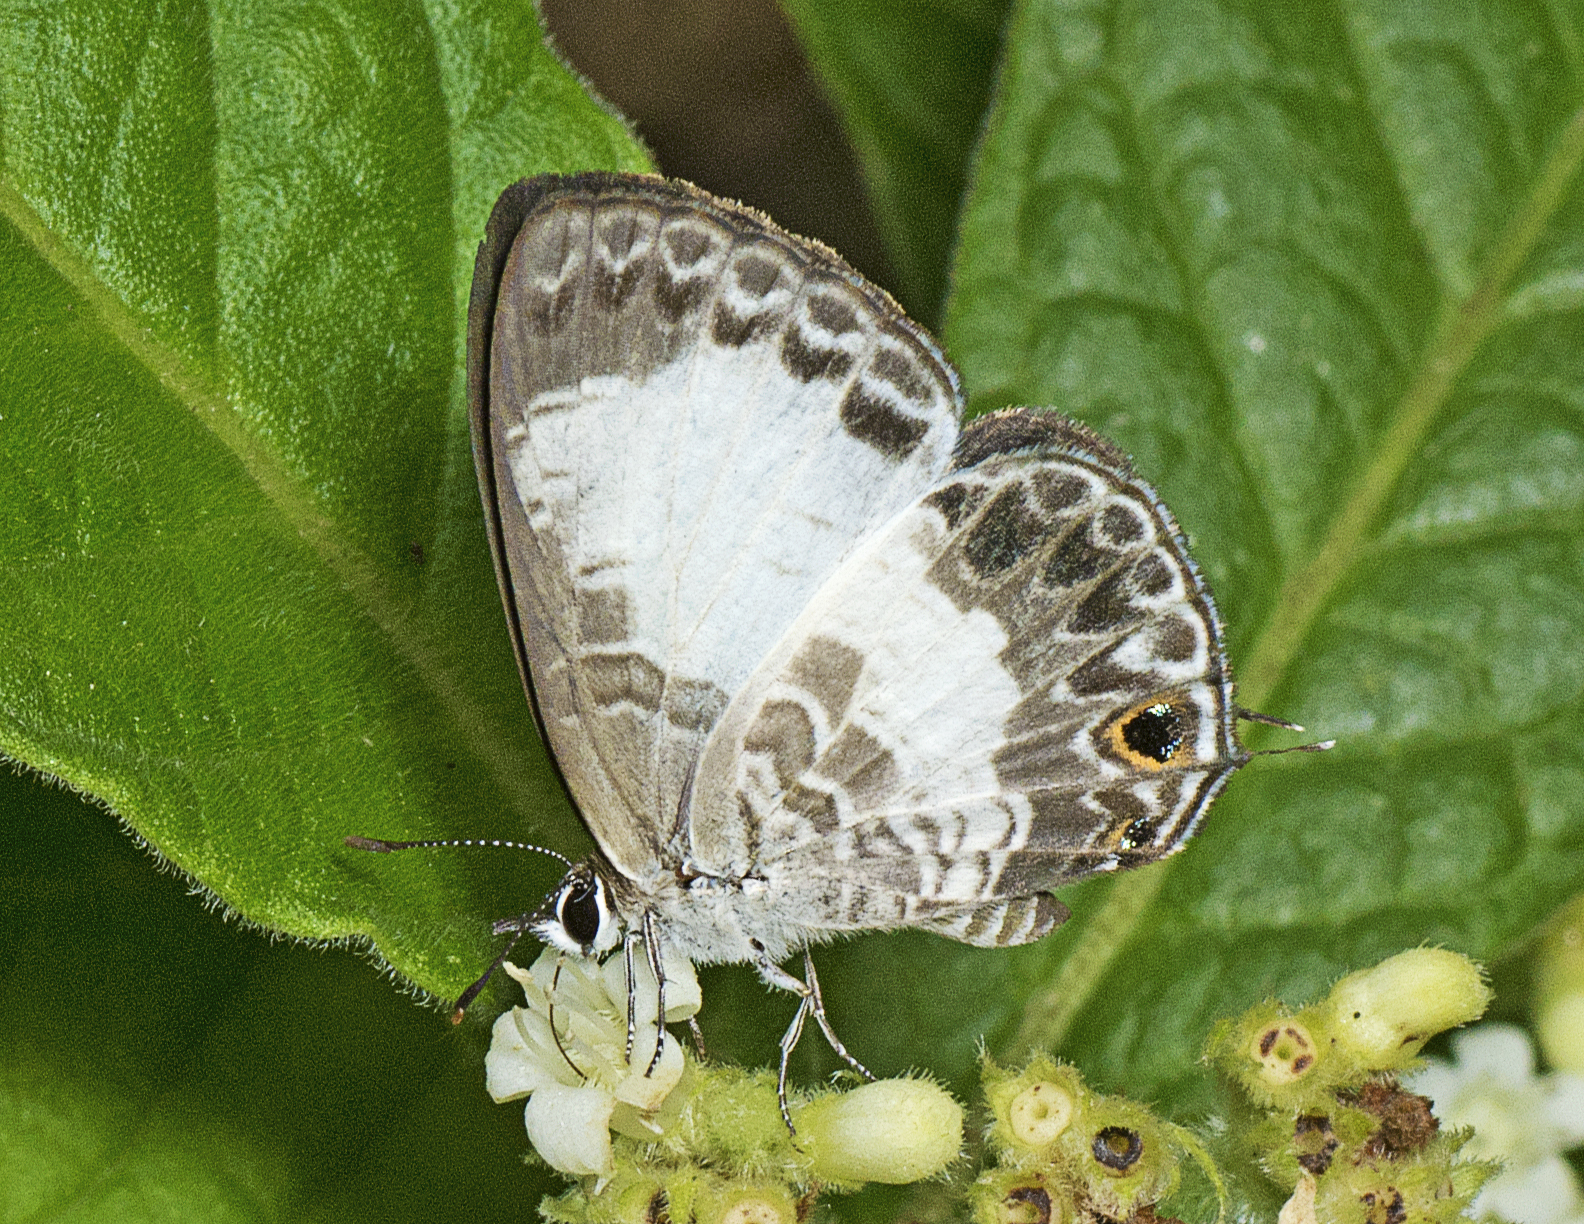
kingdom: Animalia
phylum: Arthropoda
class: Insecta
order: Lepidoptera
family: Lycaenidae
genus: Nacaduba
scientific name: Nacaduba kurava
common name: Transparent 6-line blue
